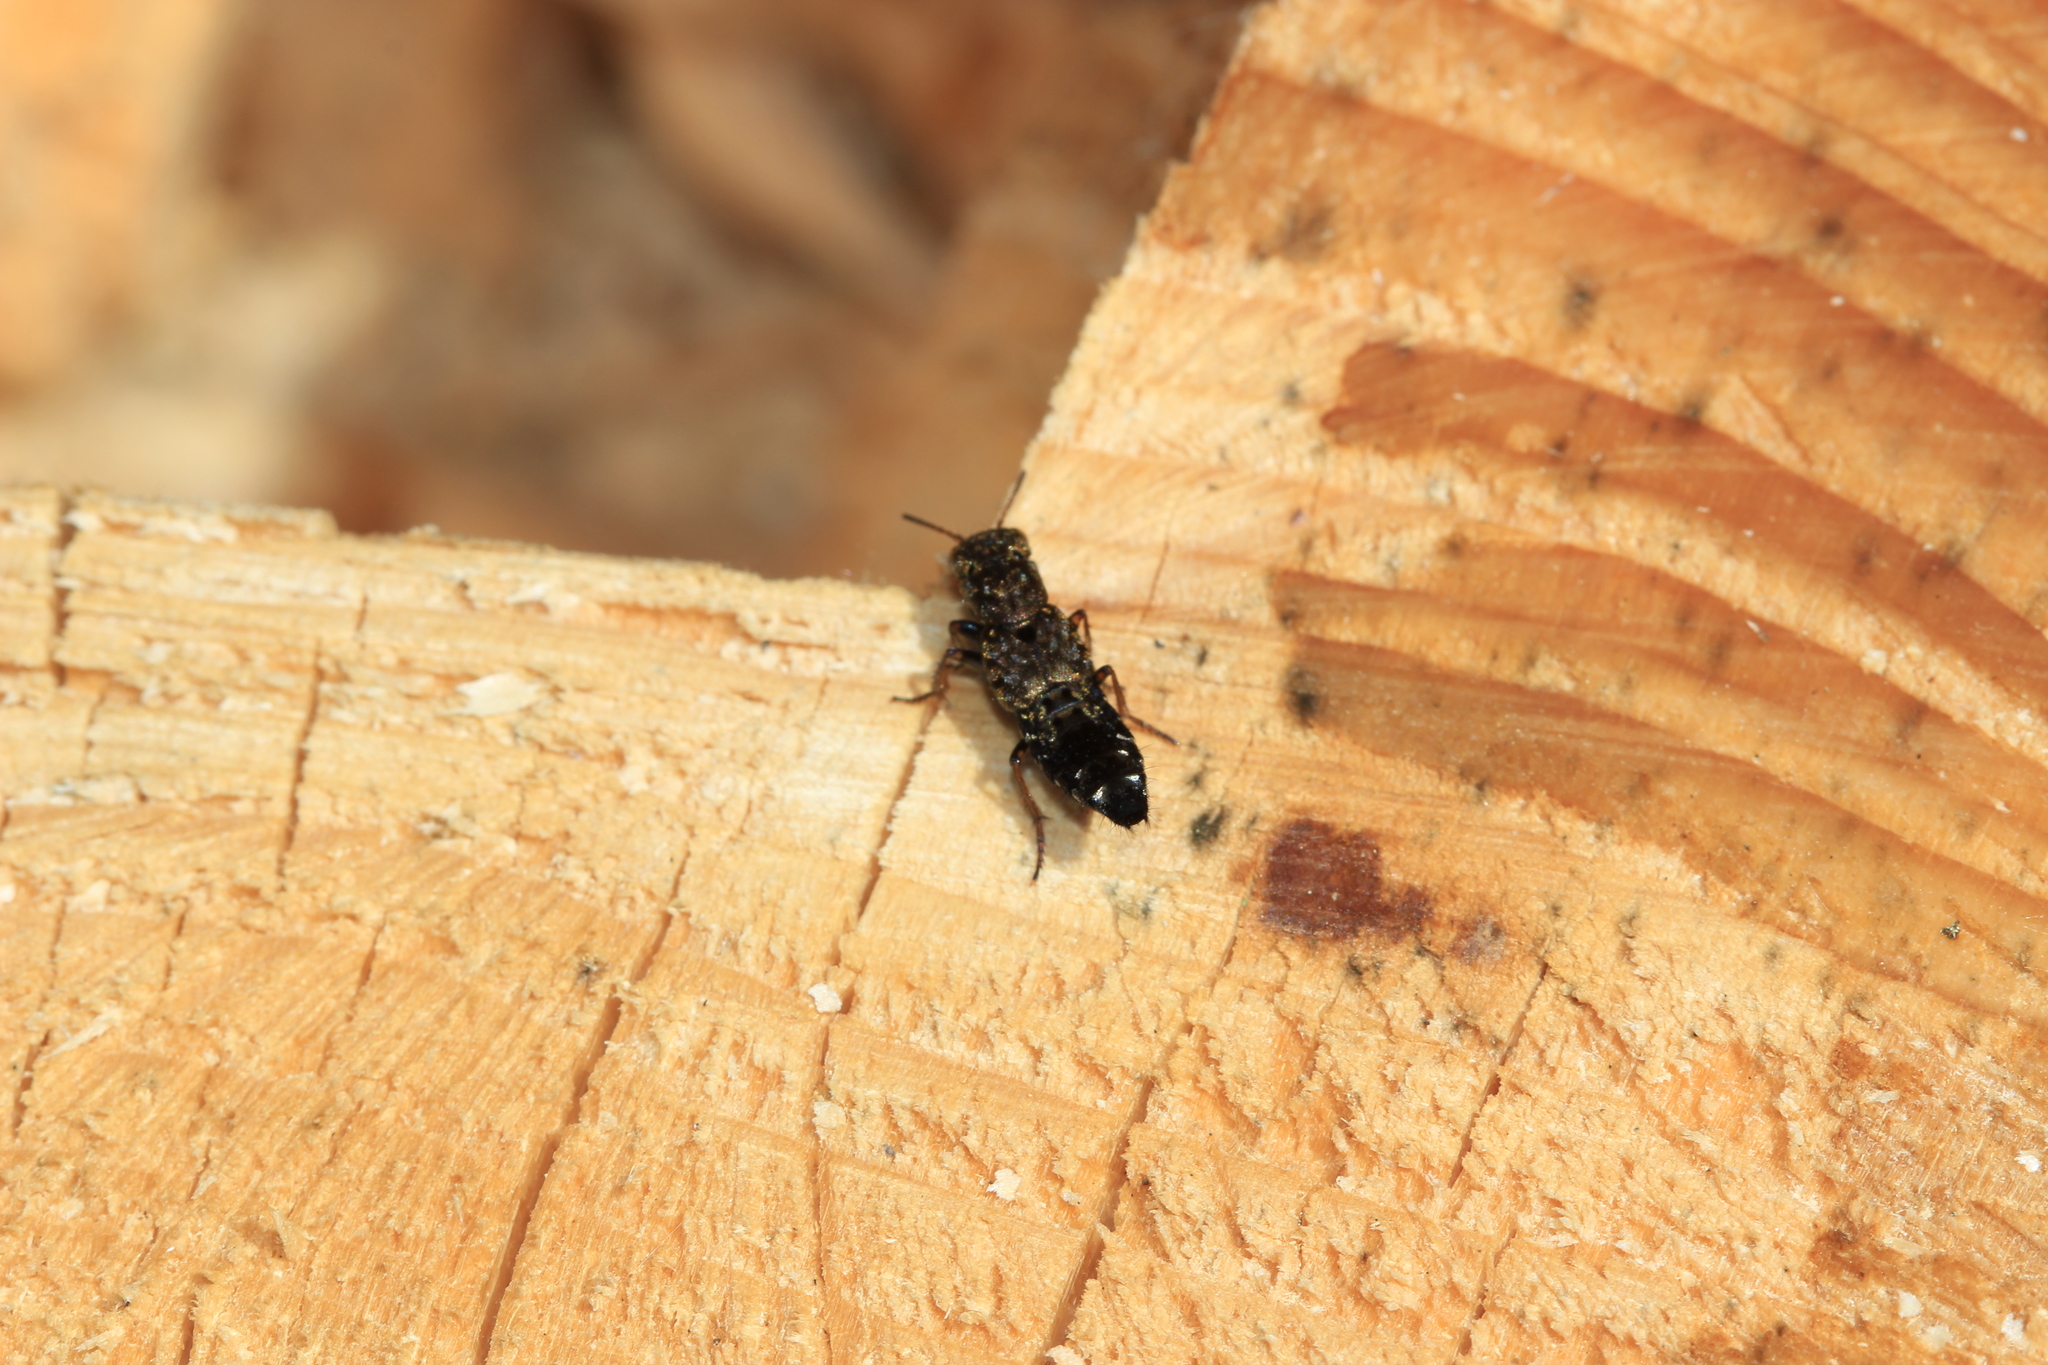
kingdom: Animalia
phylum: Arthropoda
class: Insecta
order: Coleoptera
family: Staphylinidae
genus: Ontholestes
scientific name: Ontholestes haroldi
